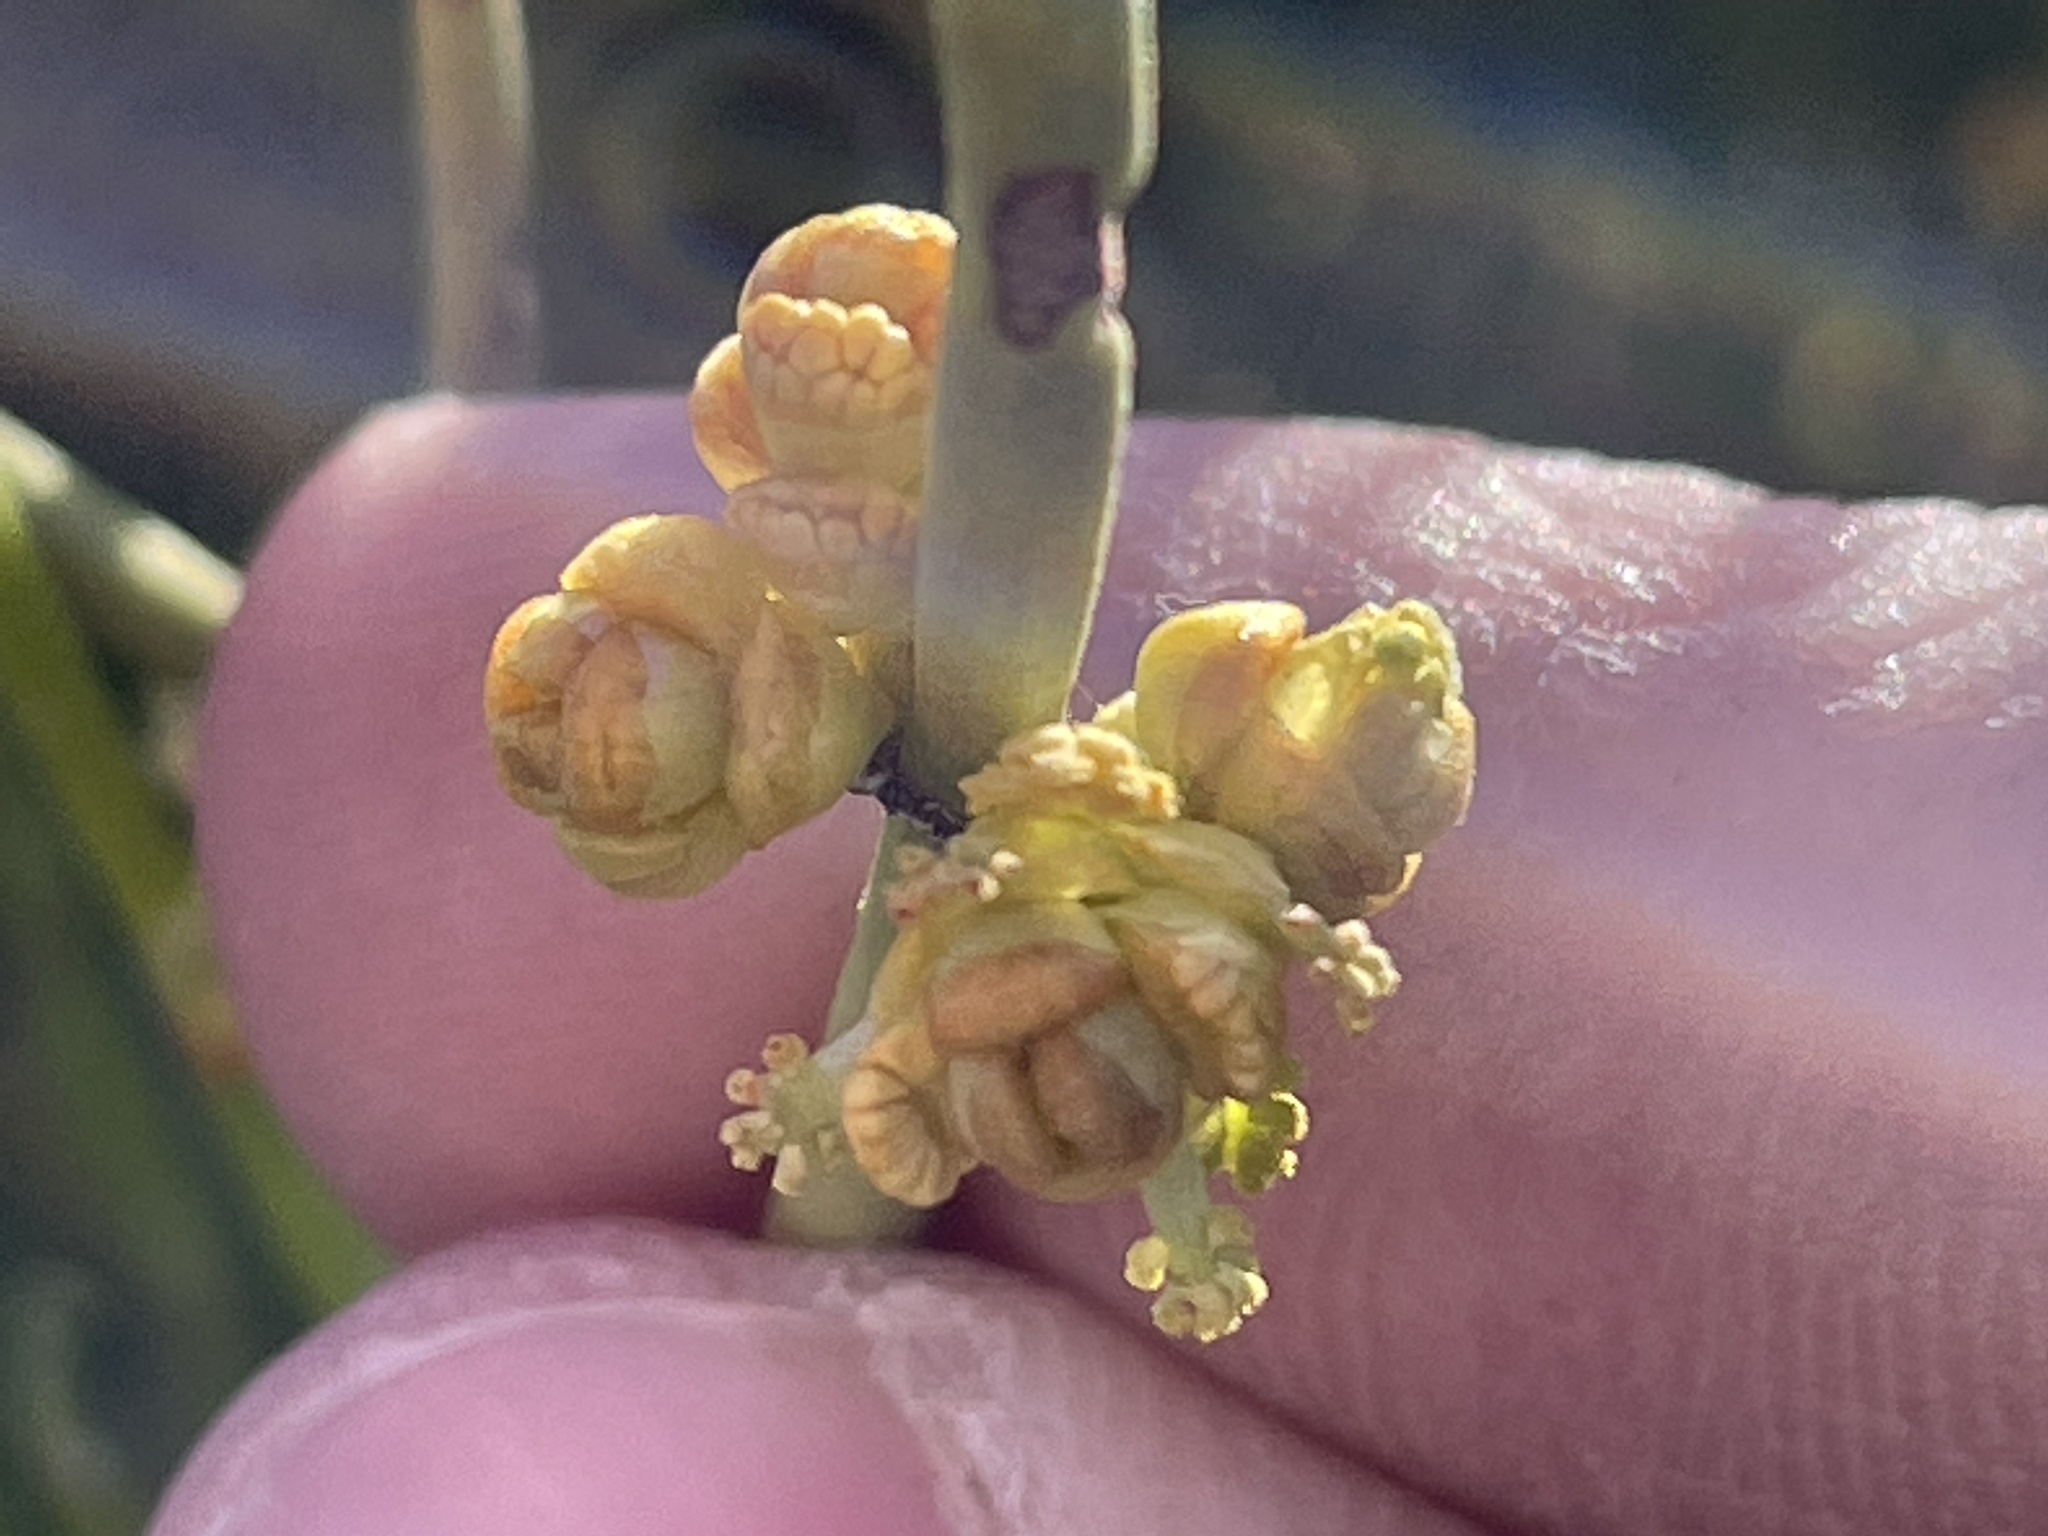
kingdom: Plantae
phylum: Tracheophyta
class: Gnetopsida
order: Ephedrales
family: Ephedraceae
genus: Ephedra
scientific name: Ephedra viridis
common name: Green ephedra
